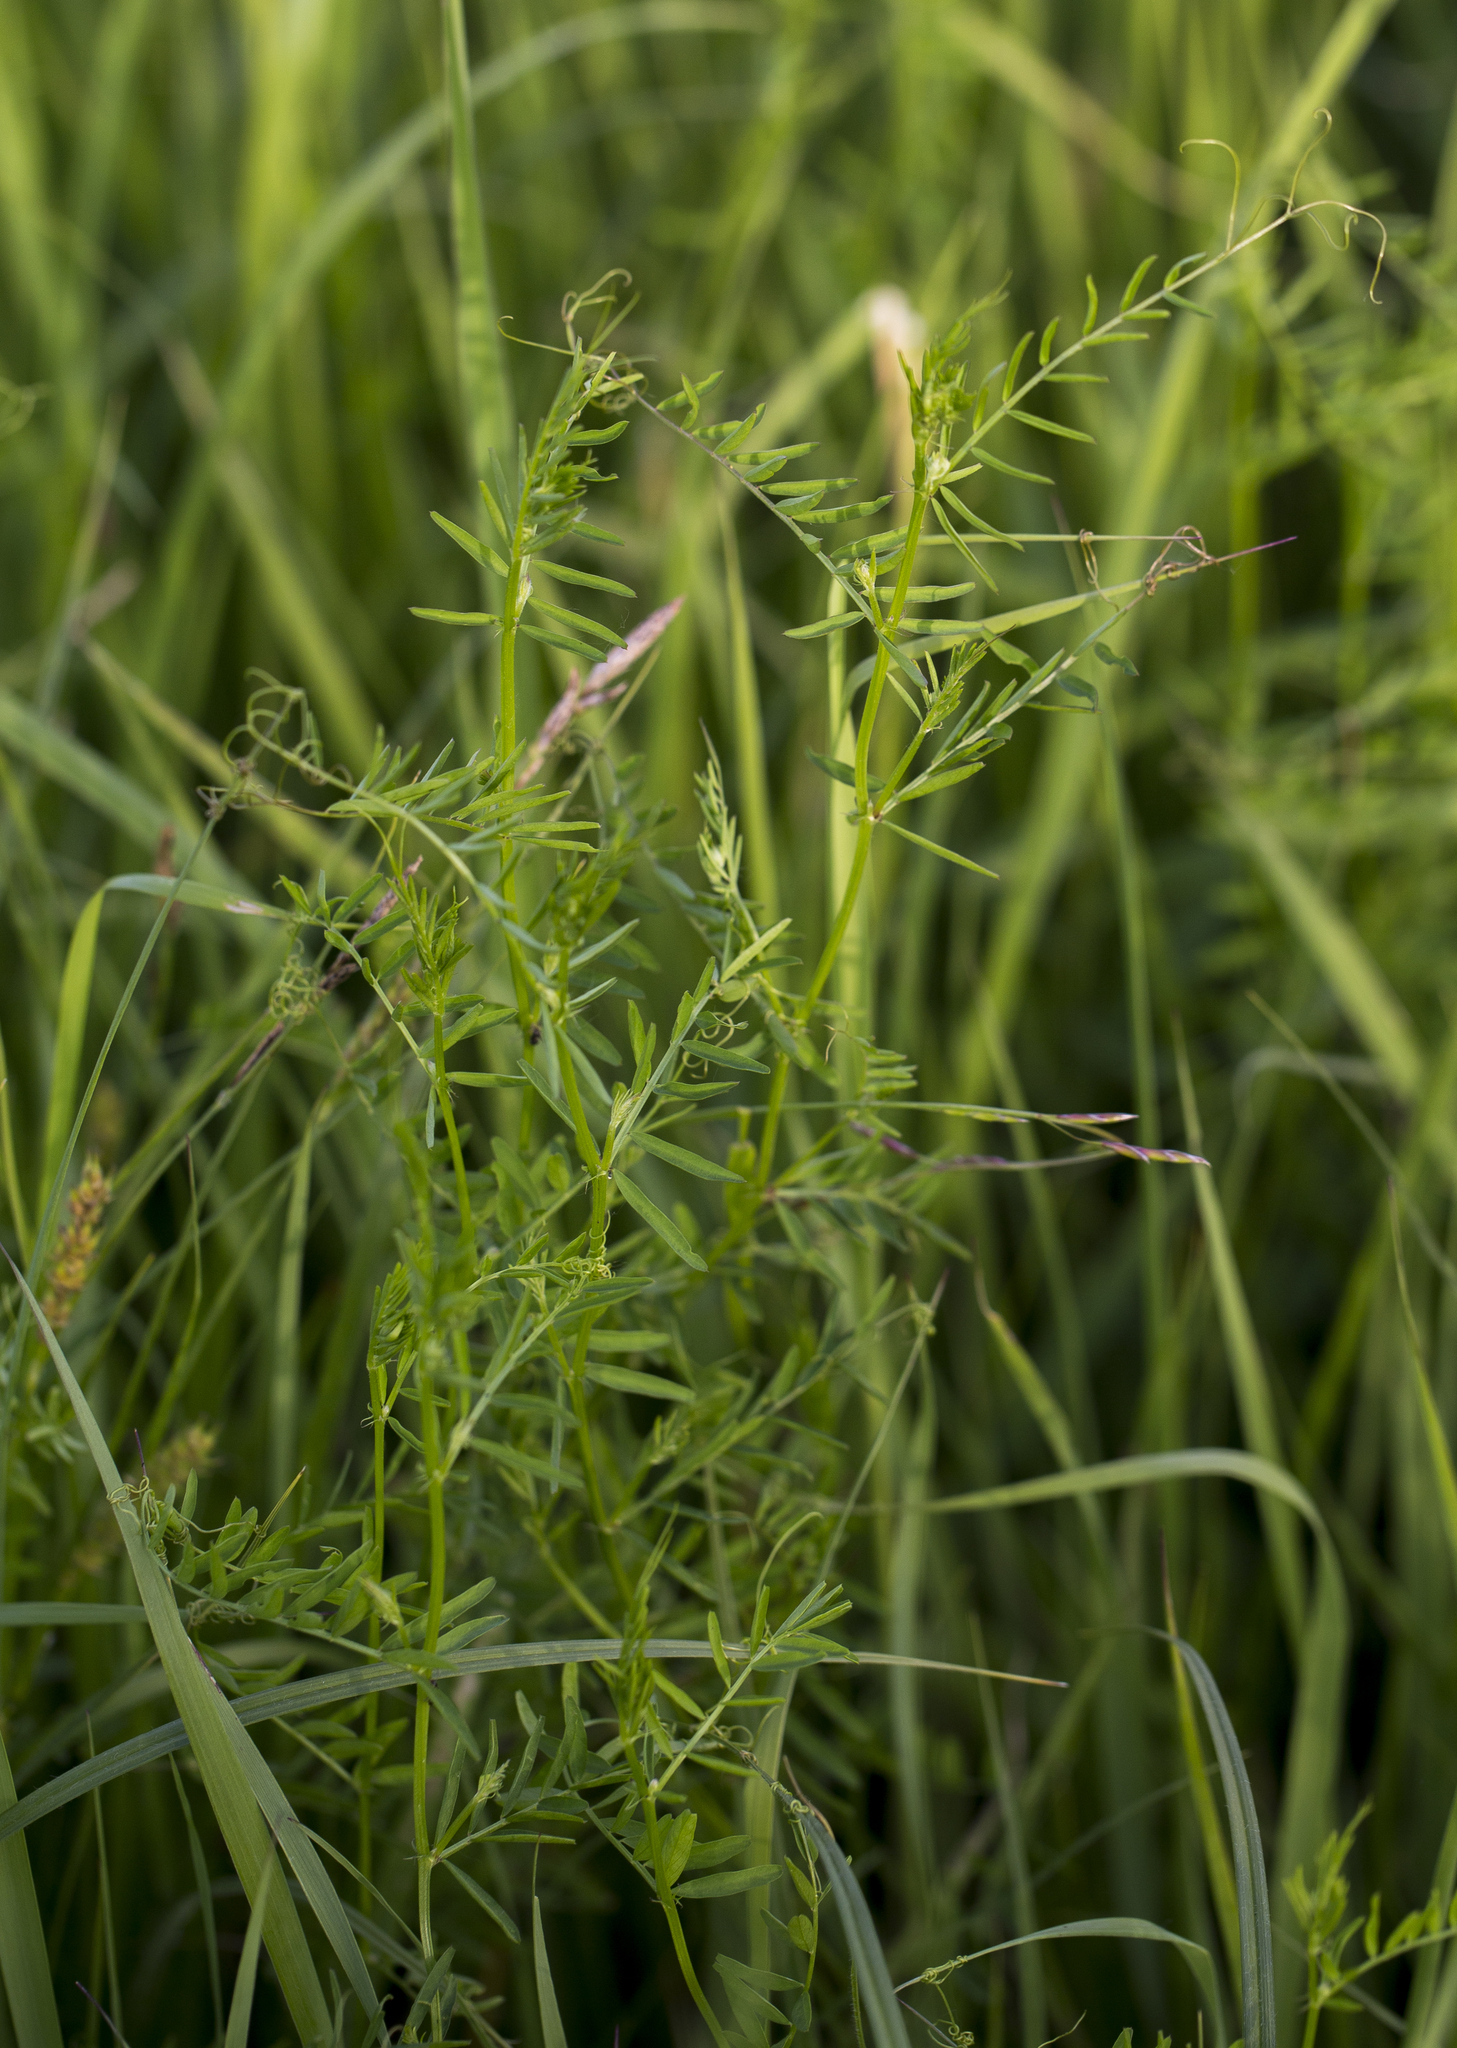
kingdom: Plantae
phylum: Tracheophyta
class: Magnoliopsida
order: Fabales
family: Fabaceae
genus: Vicia
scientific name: Vicia hirsuta
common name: Tiny vetch
